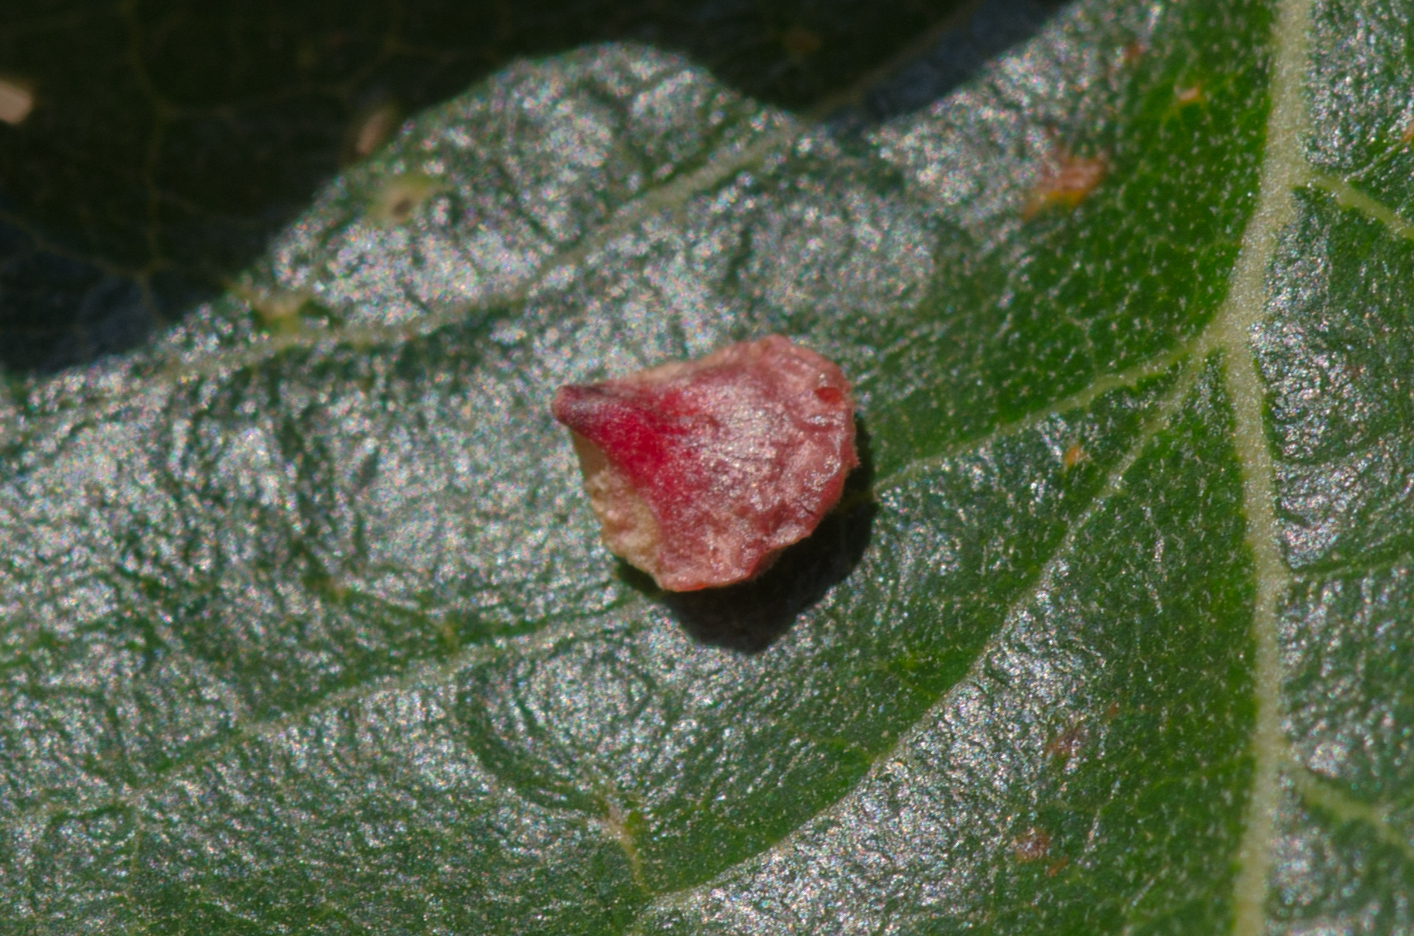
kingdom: Animalia
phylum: Arthropoda
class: Insecta
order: Hymenoptera
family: Cynipidae
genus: Andricus
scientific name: Andricus
